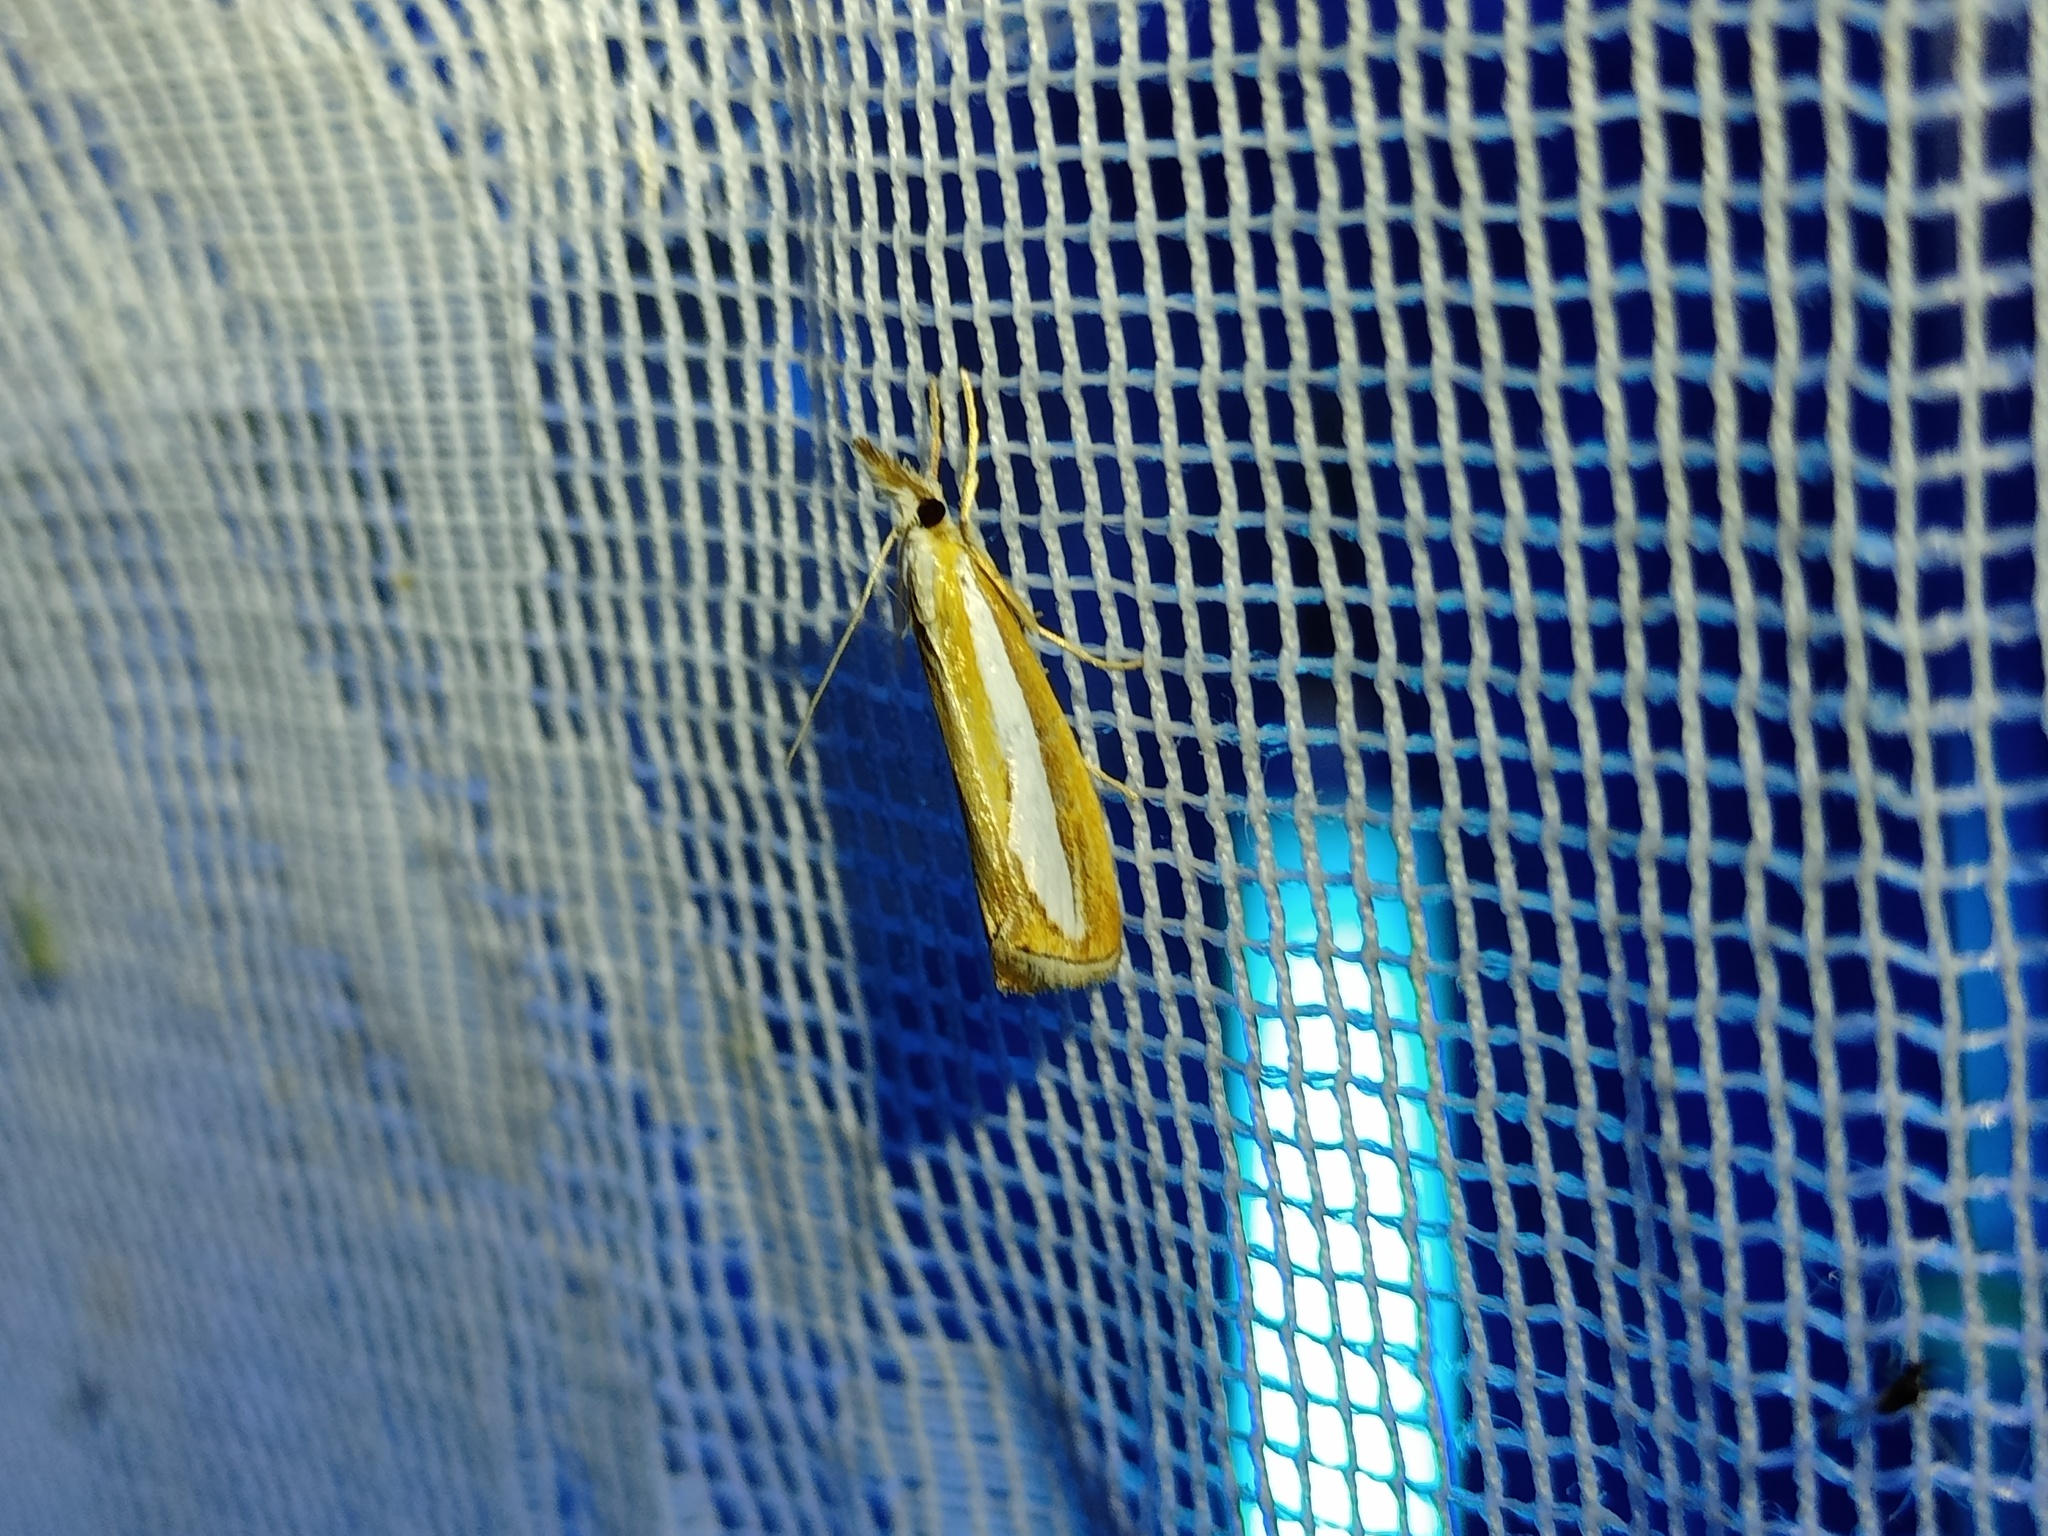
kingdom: Animalia
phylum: Arthropoda
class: Insecta
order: Lepidoptera
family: Crambidae
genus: Catoptria
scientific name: Catoptria margaritellus
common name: Pearl-band grass veneer
